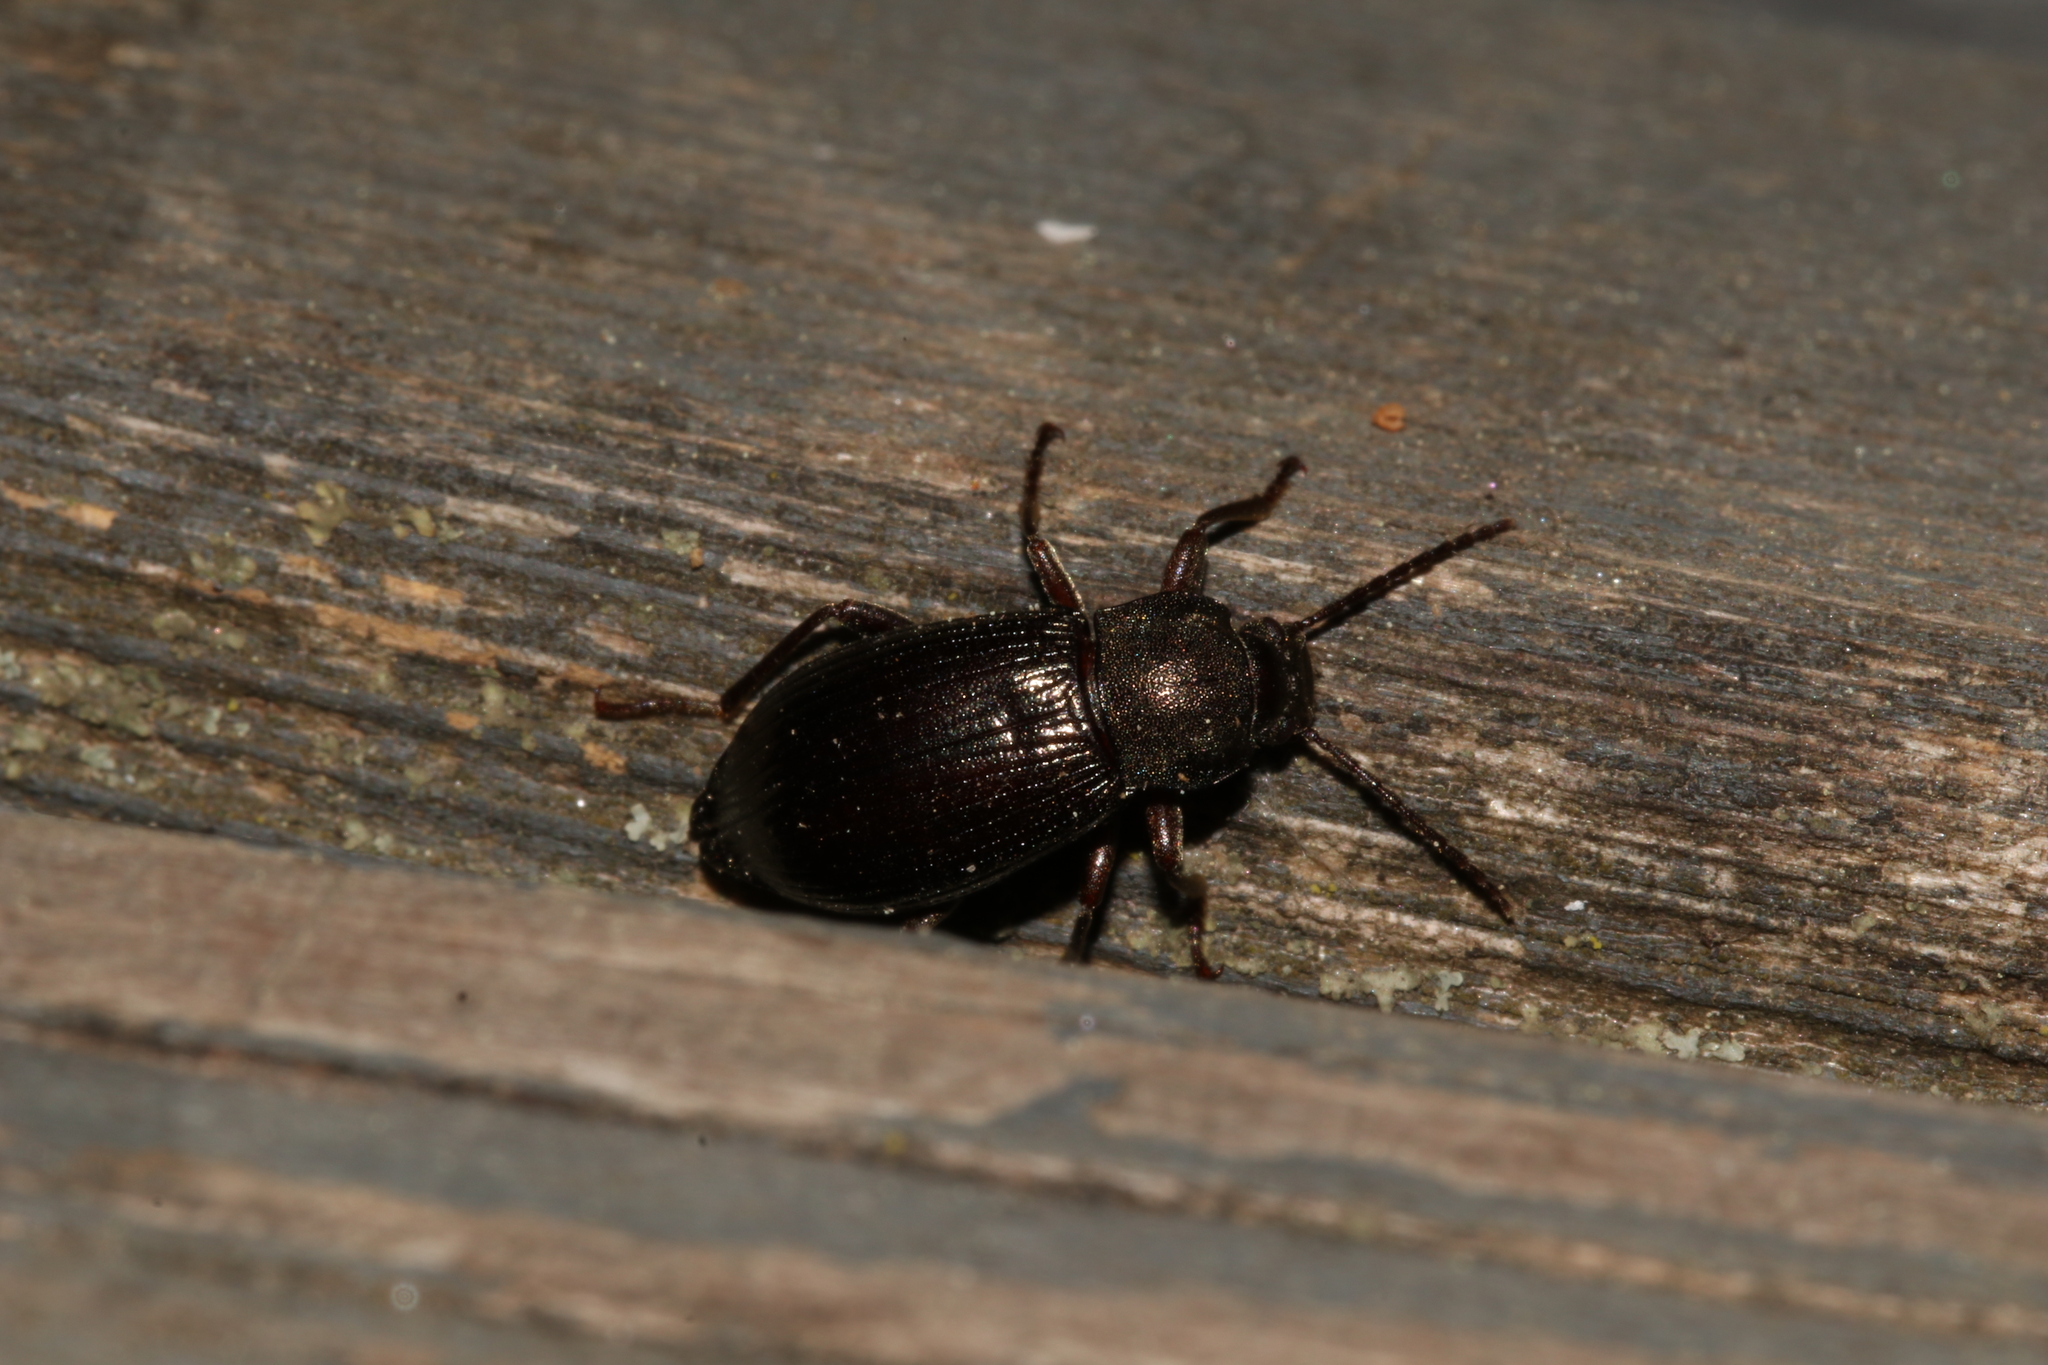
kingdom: Animalia
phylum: Arthropoda
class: Insecta
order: Coleoptera
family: Tenebrionidae
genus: Stenomax
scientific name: Stenomax aeneus
